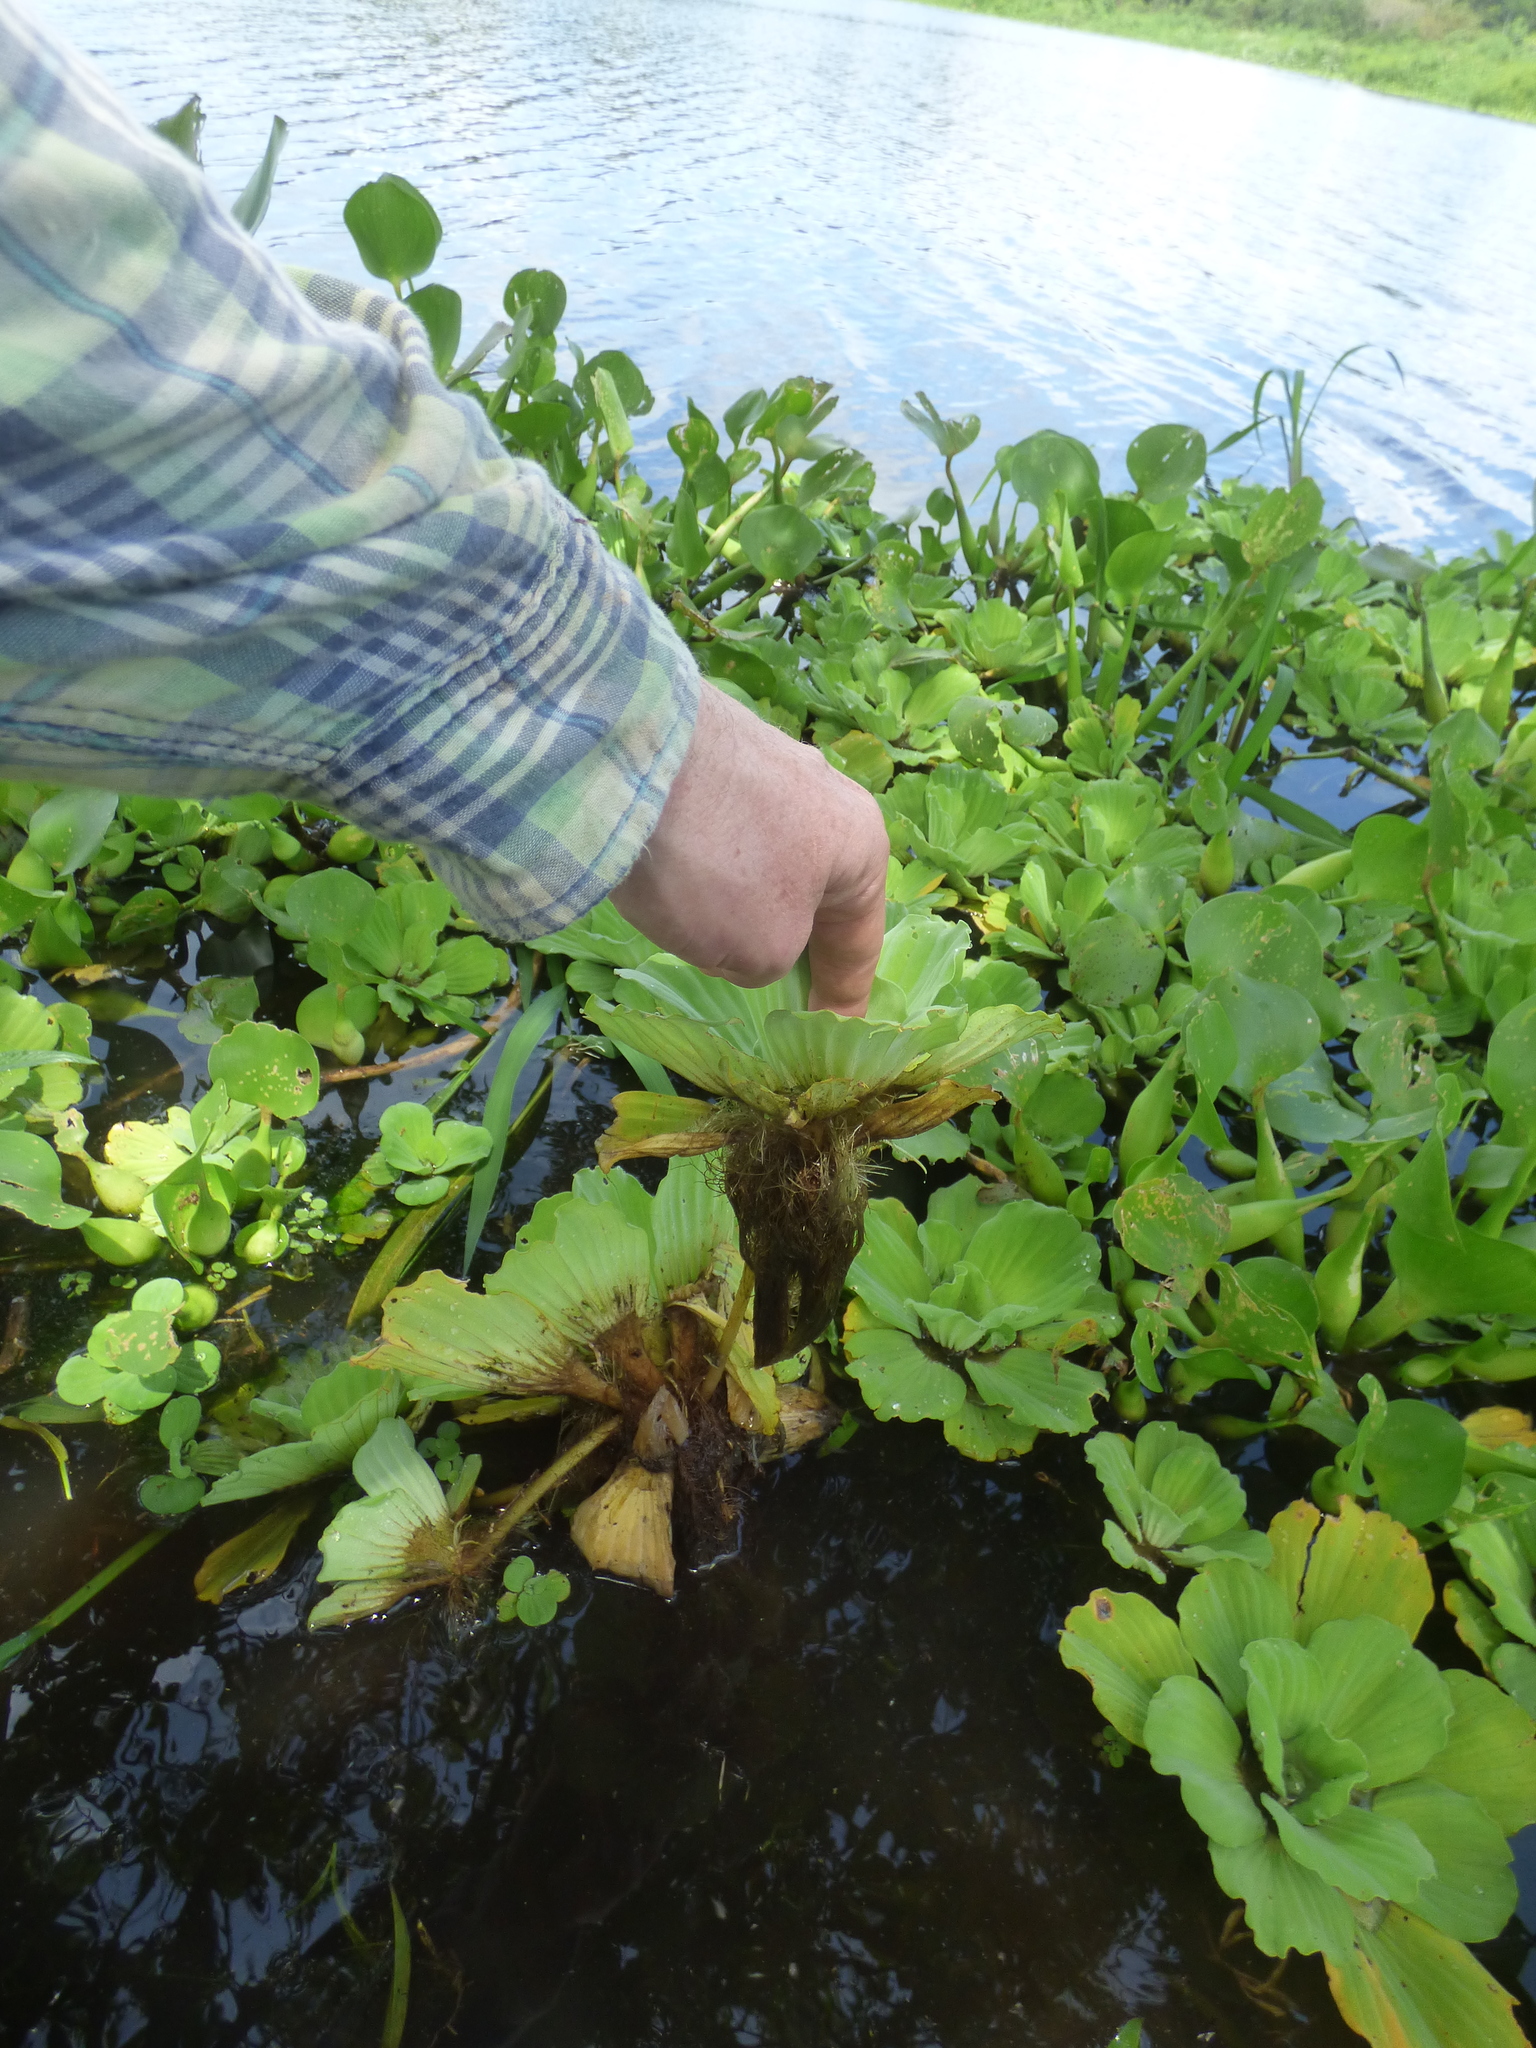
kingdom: Plantae
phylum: Tracheophyta
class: Liliopsida
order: Alismatales
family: Araceae
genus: Pistia
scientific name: Pistia stratiotes
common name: Water lettuce
